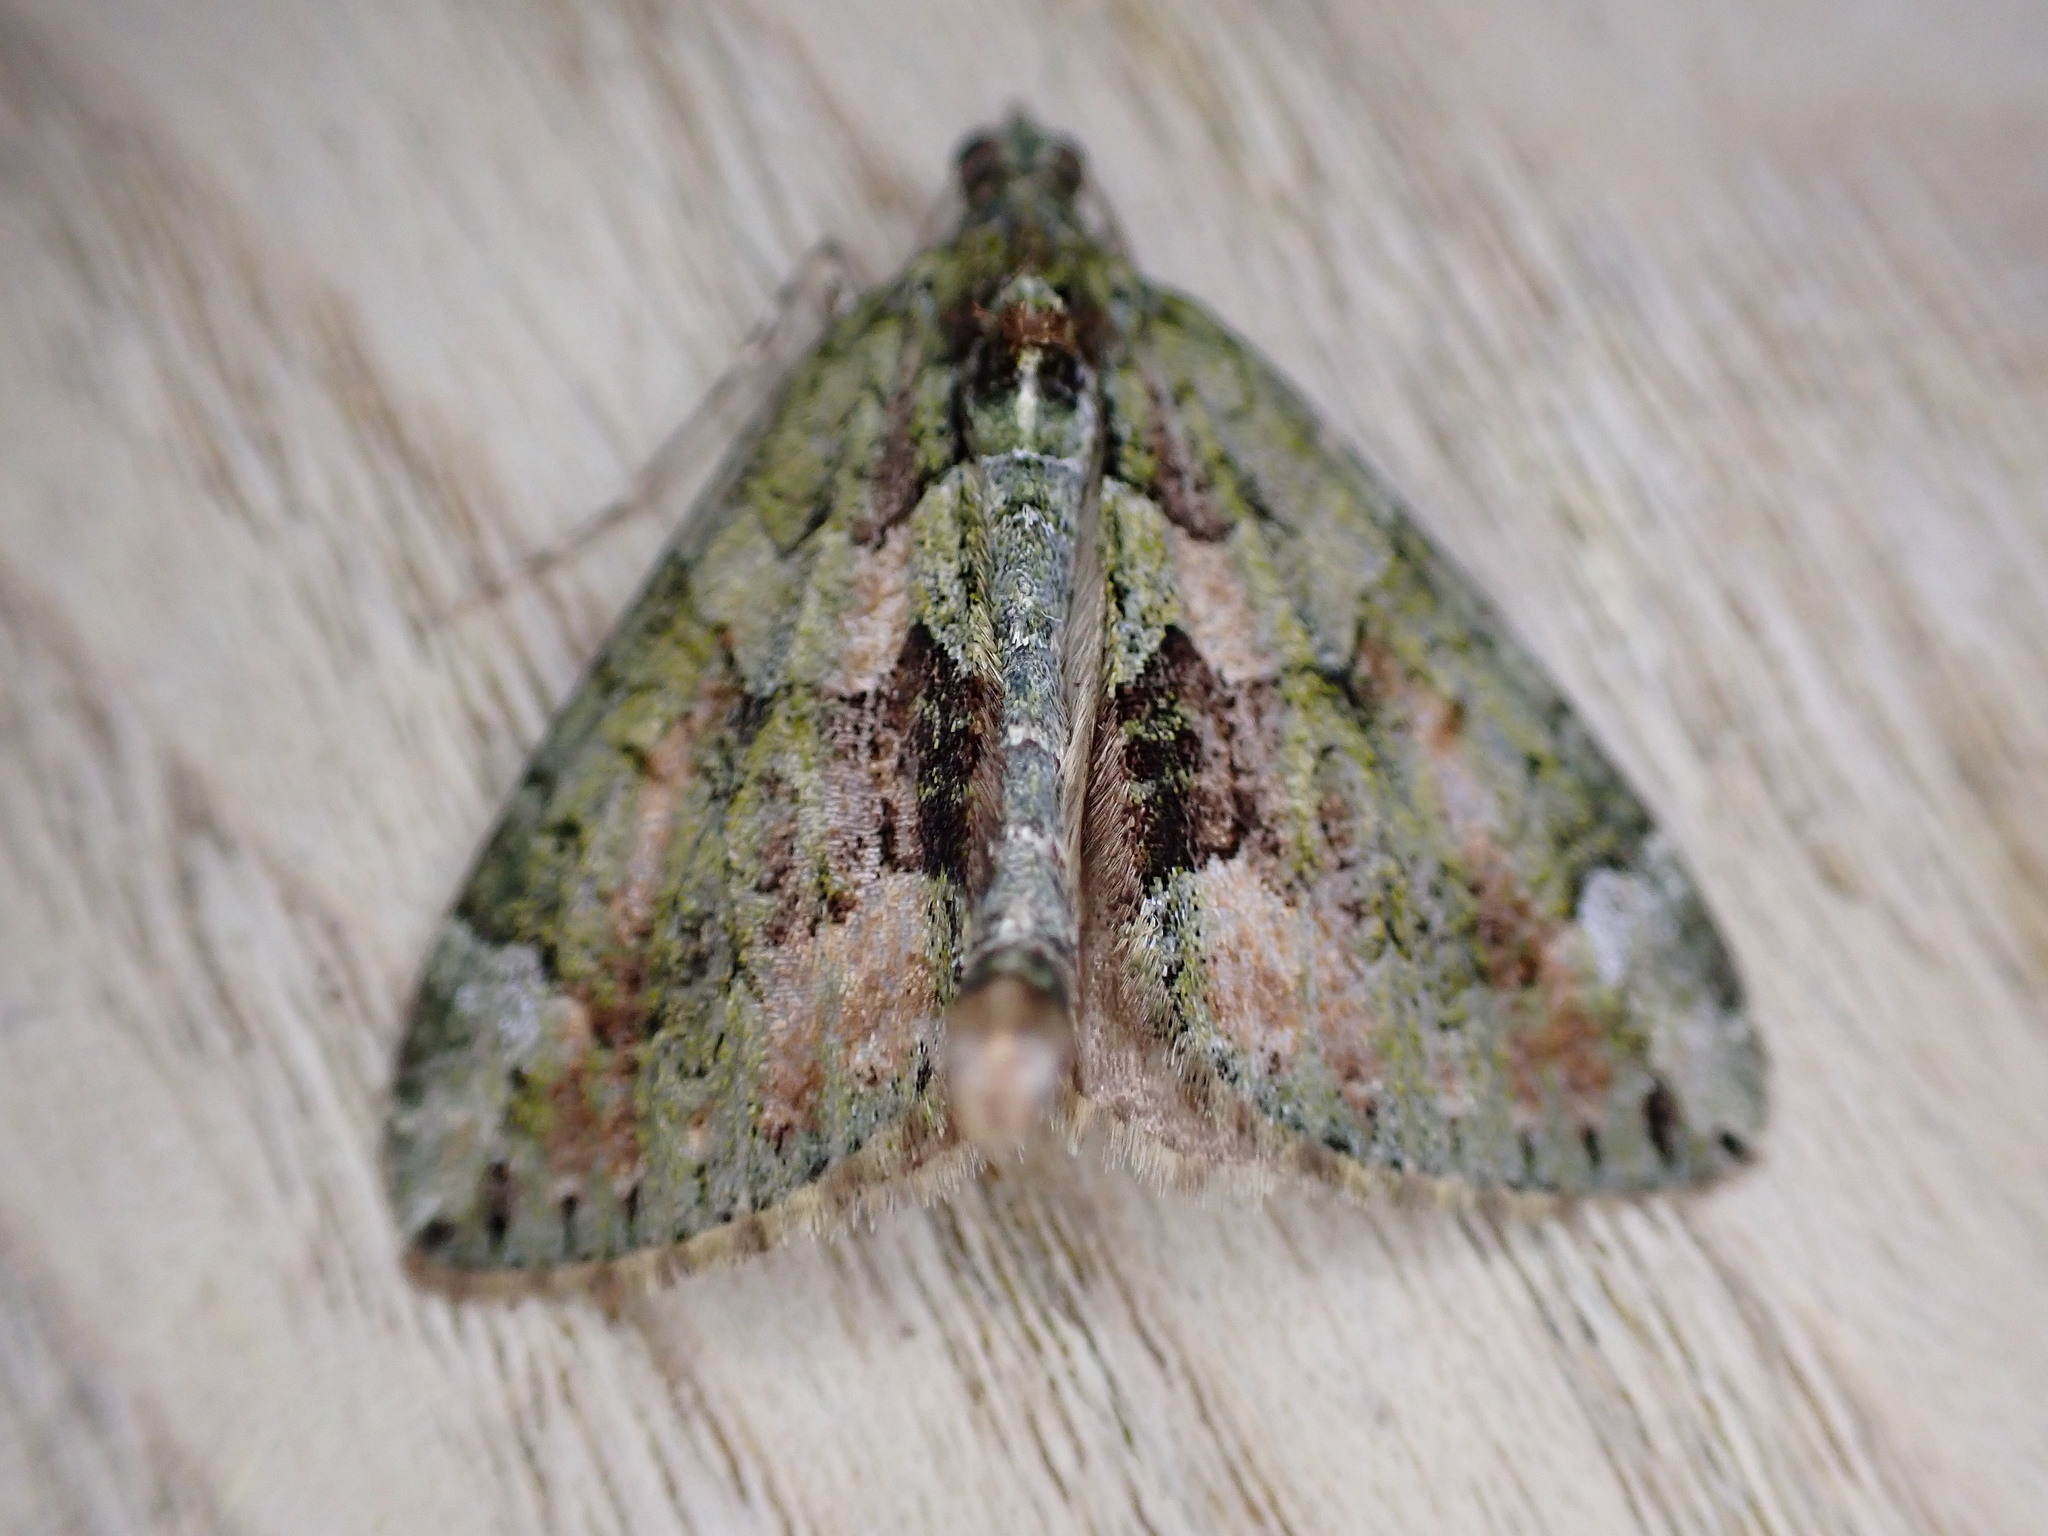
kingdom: Animalia
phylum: Arthropoda
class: Insecta
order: Lepidoptera
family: Geometridae
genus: Chloroclysta
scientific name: Chloroclysta siterata
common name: Red-green carpet
